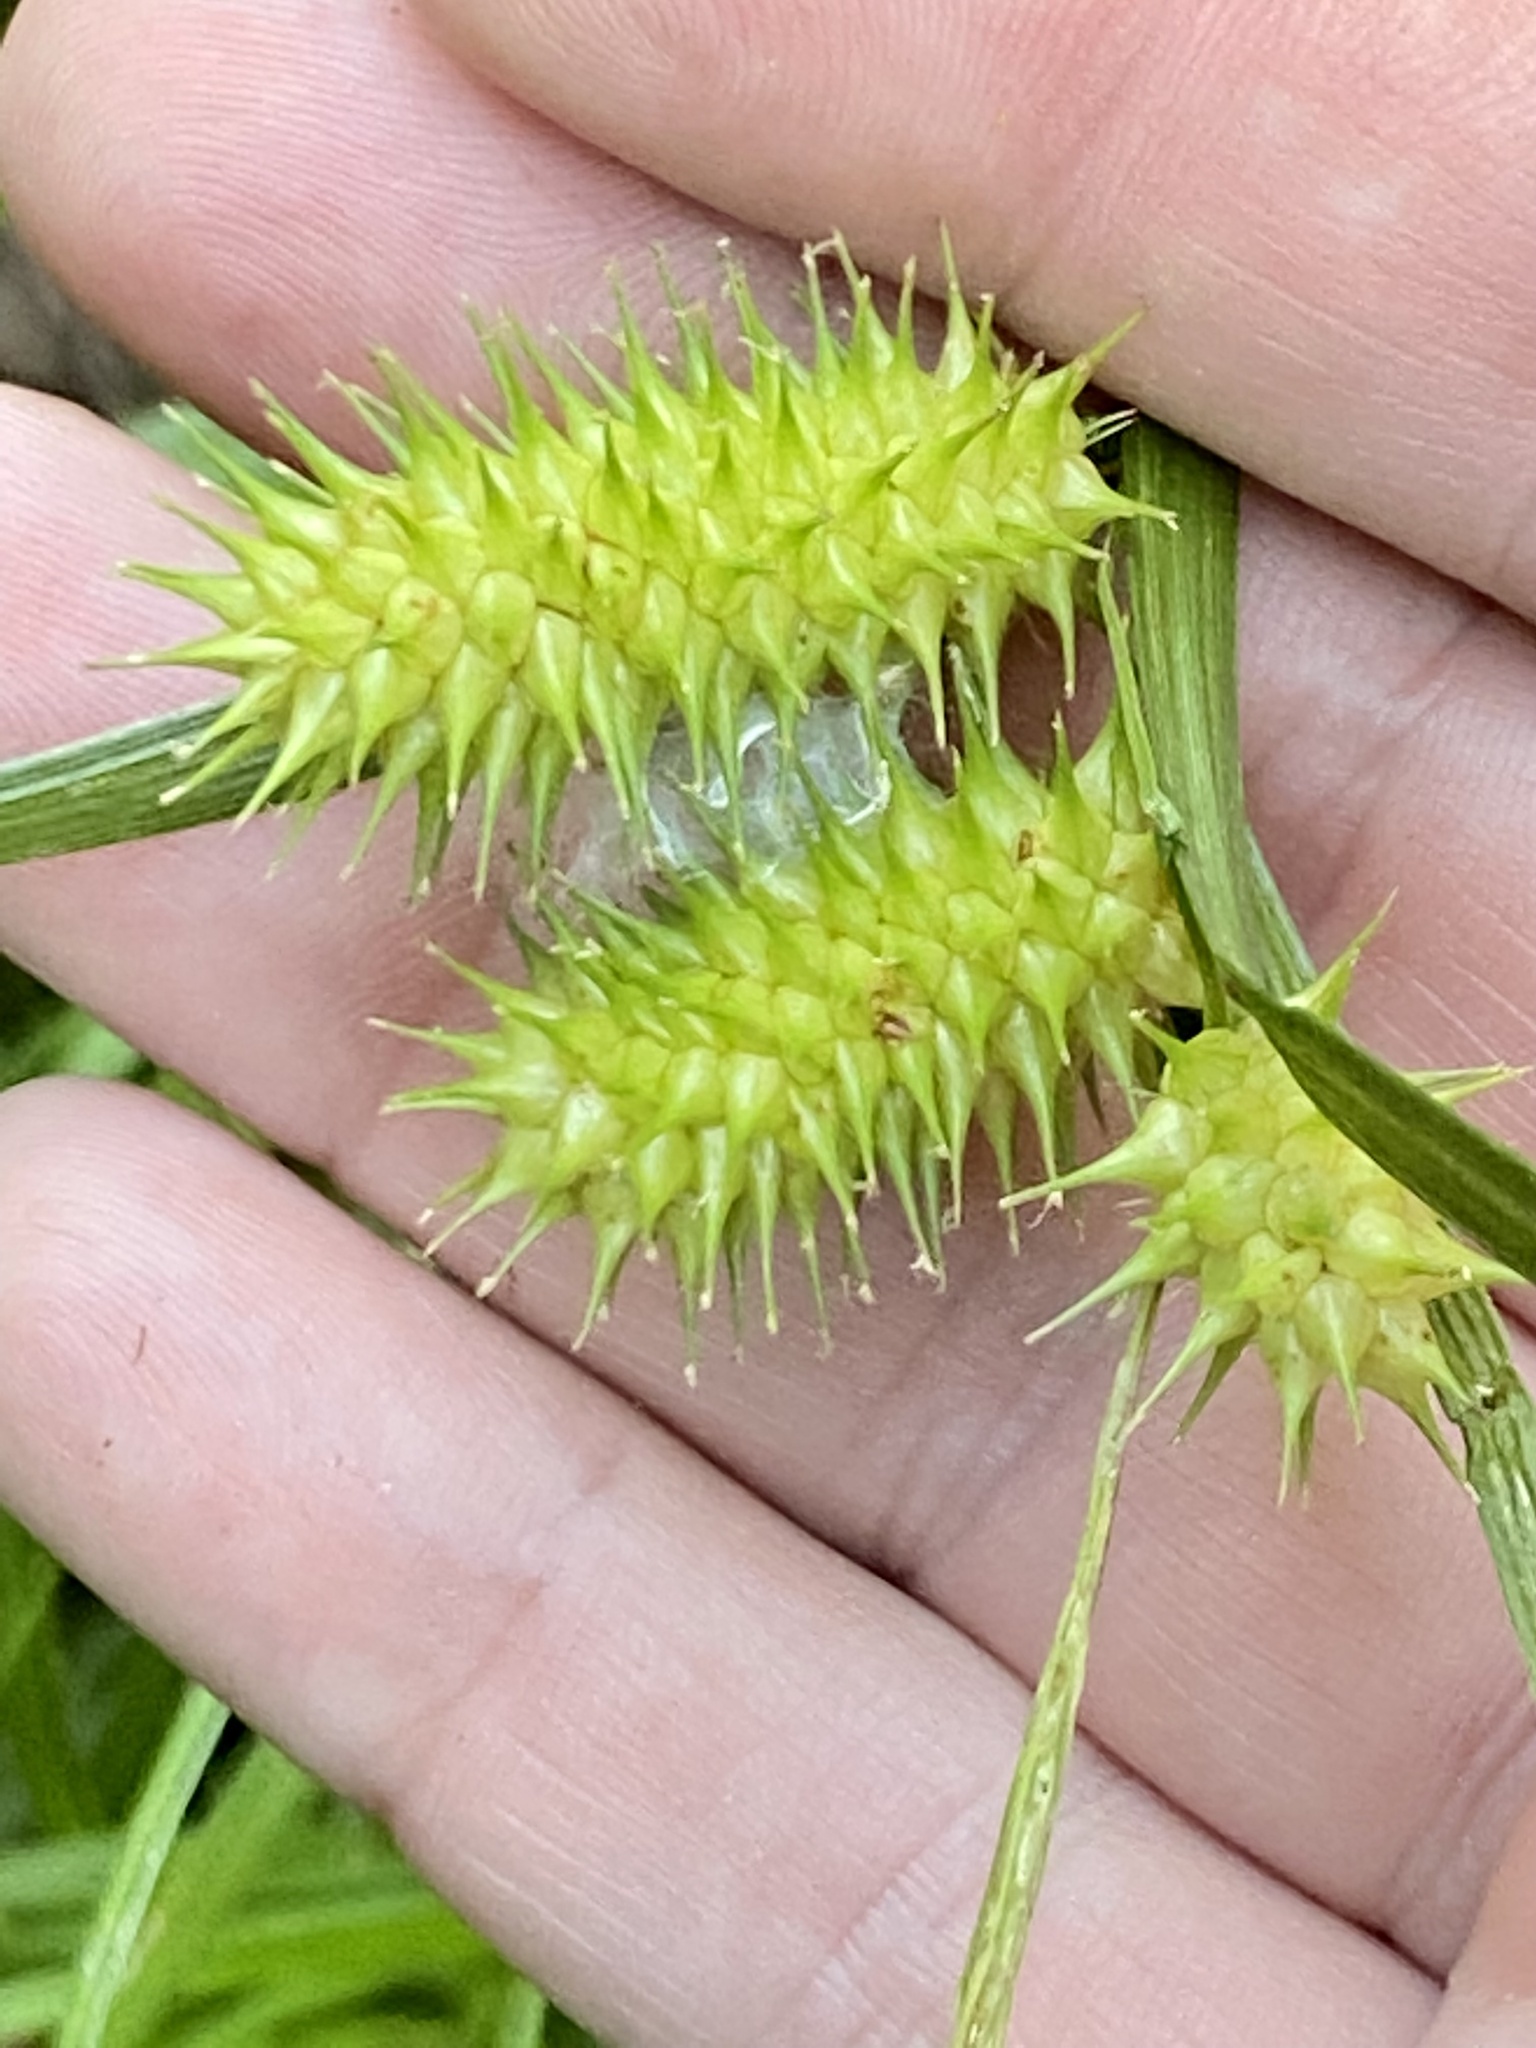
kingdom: Plantae
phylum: Tracheophyta
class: Liliopsida
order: Poales
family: Cyperaceae
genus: Carex
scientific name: Carex lurida
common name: Sallow sedge
